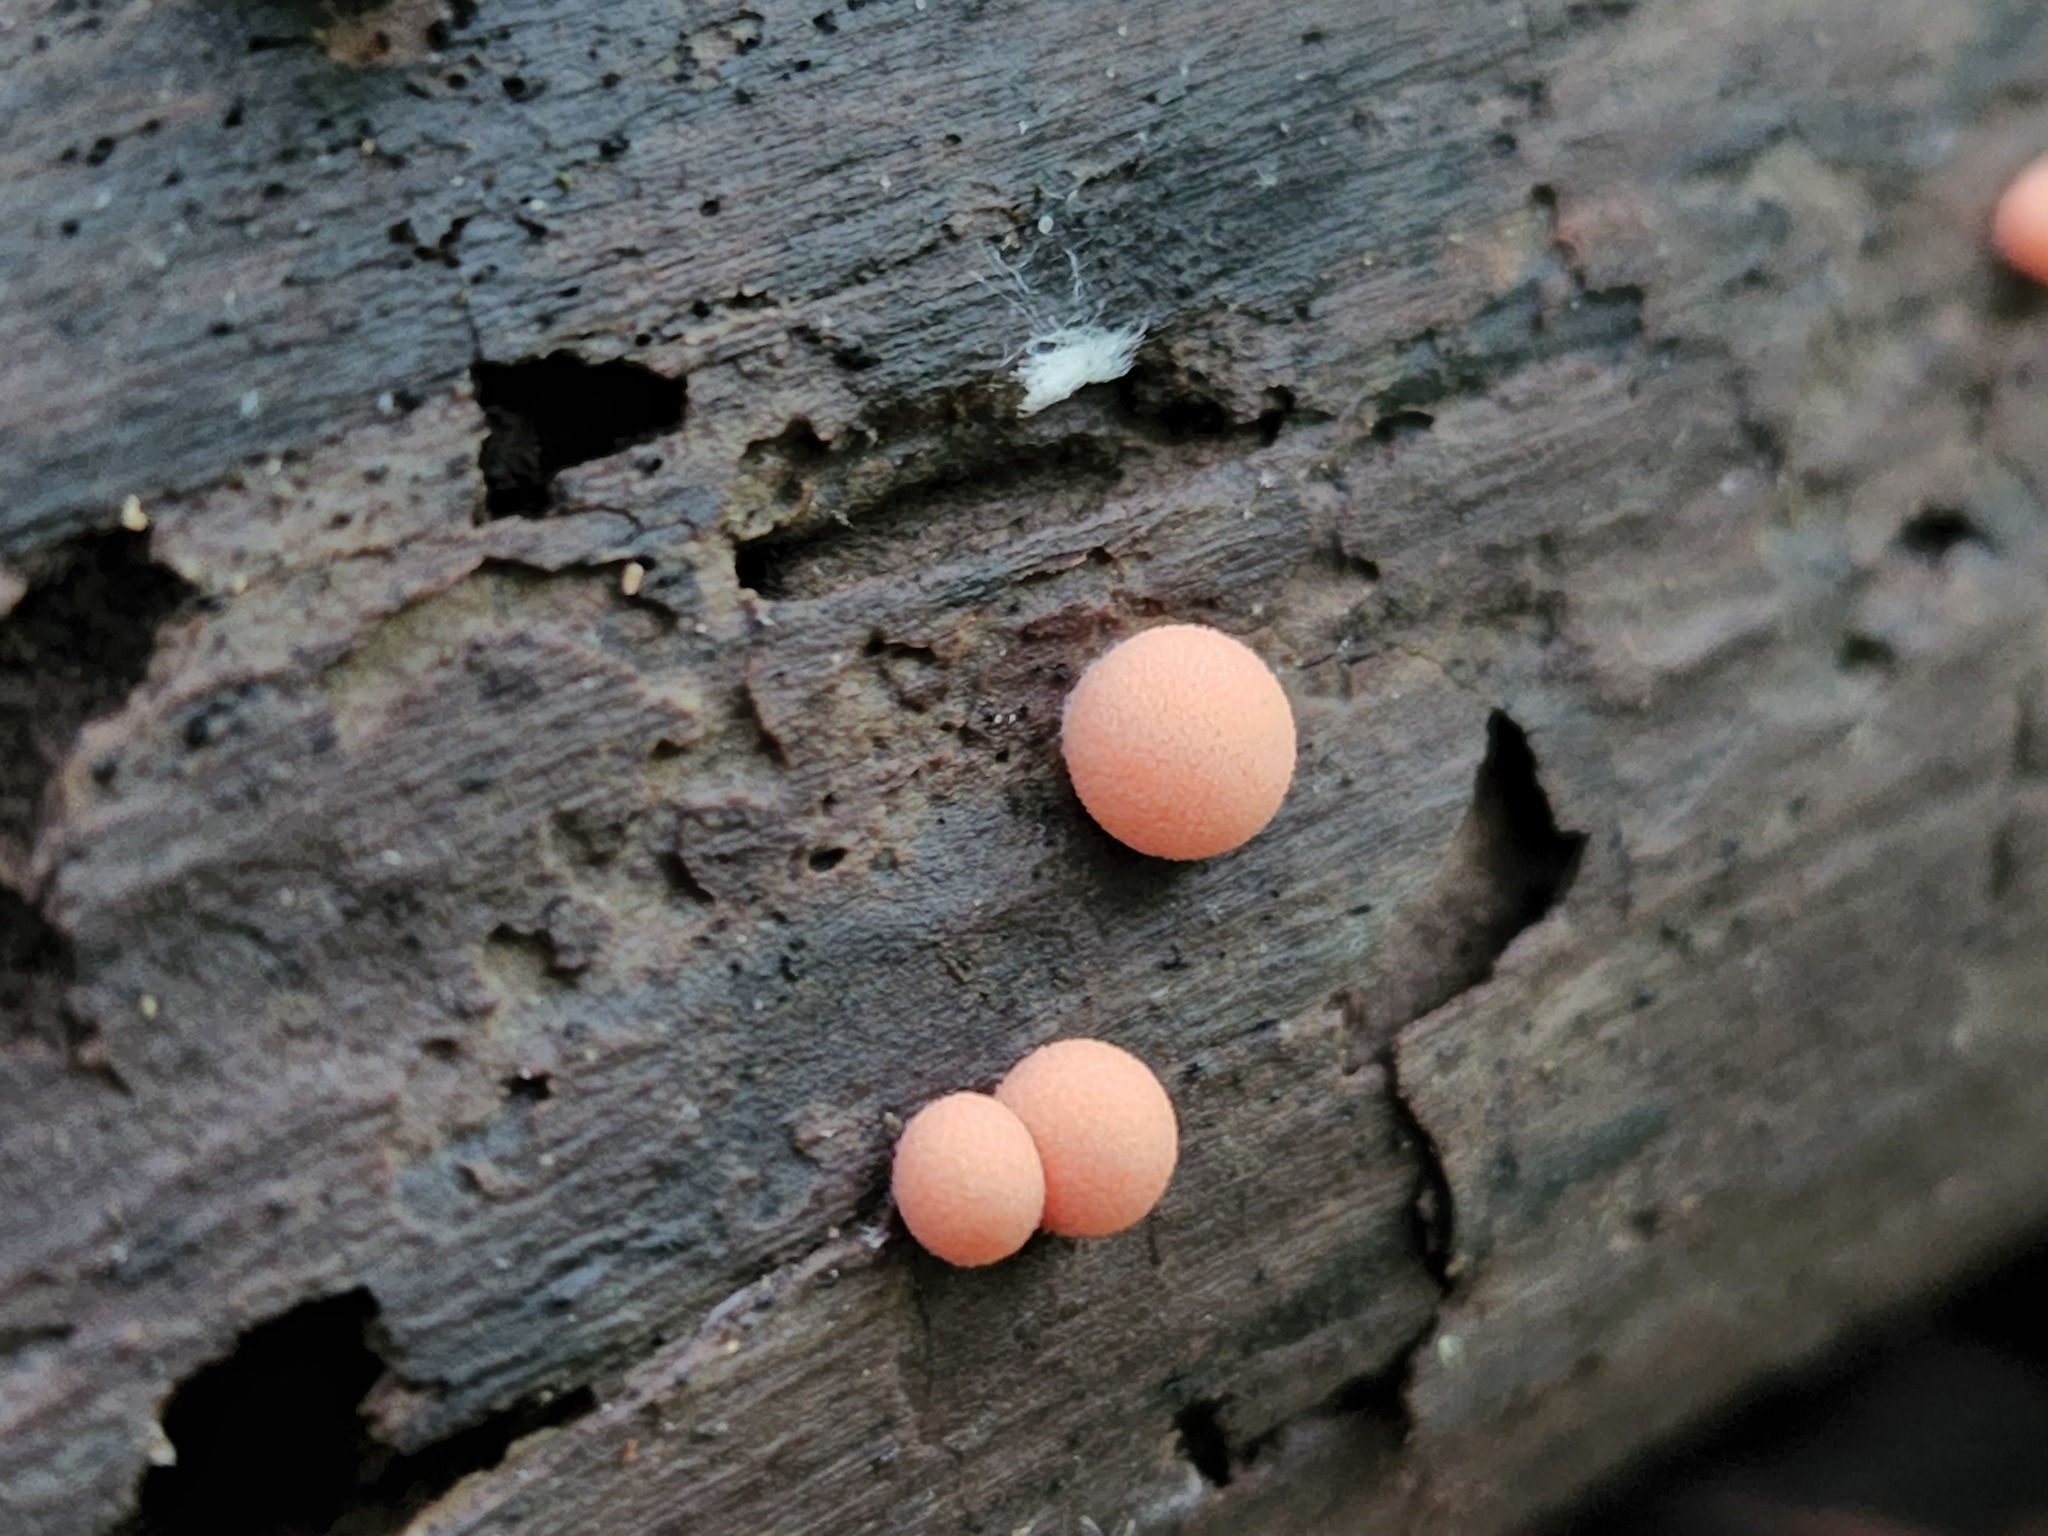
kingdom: Protozoa
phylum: Mycetozoa
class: Myxomycetes
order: Cribrariales
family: Tubiferaceae
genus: Lycogala
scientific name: Lycogala epidendrum
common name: Wolf's milk
